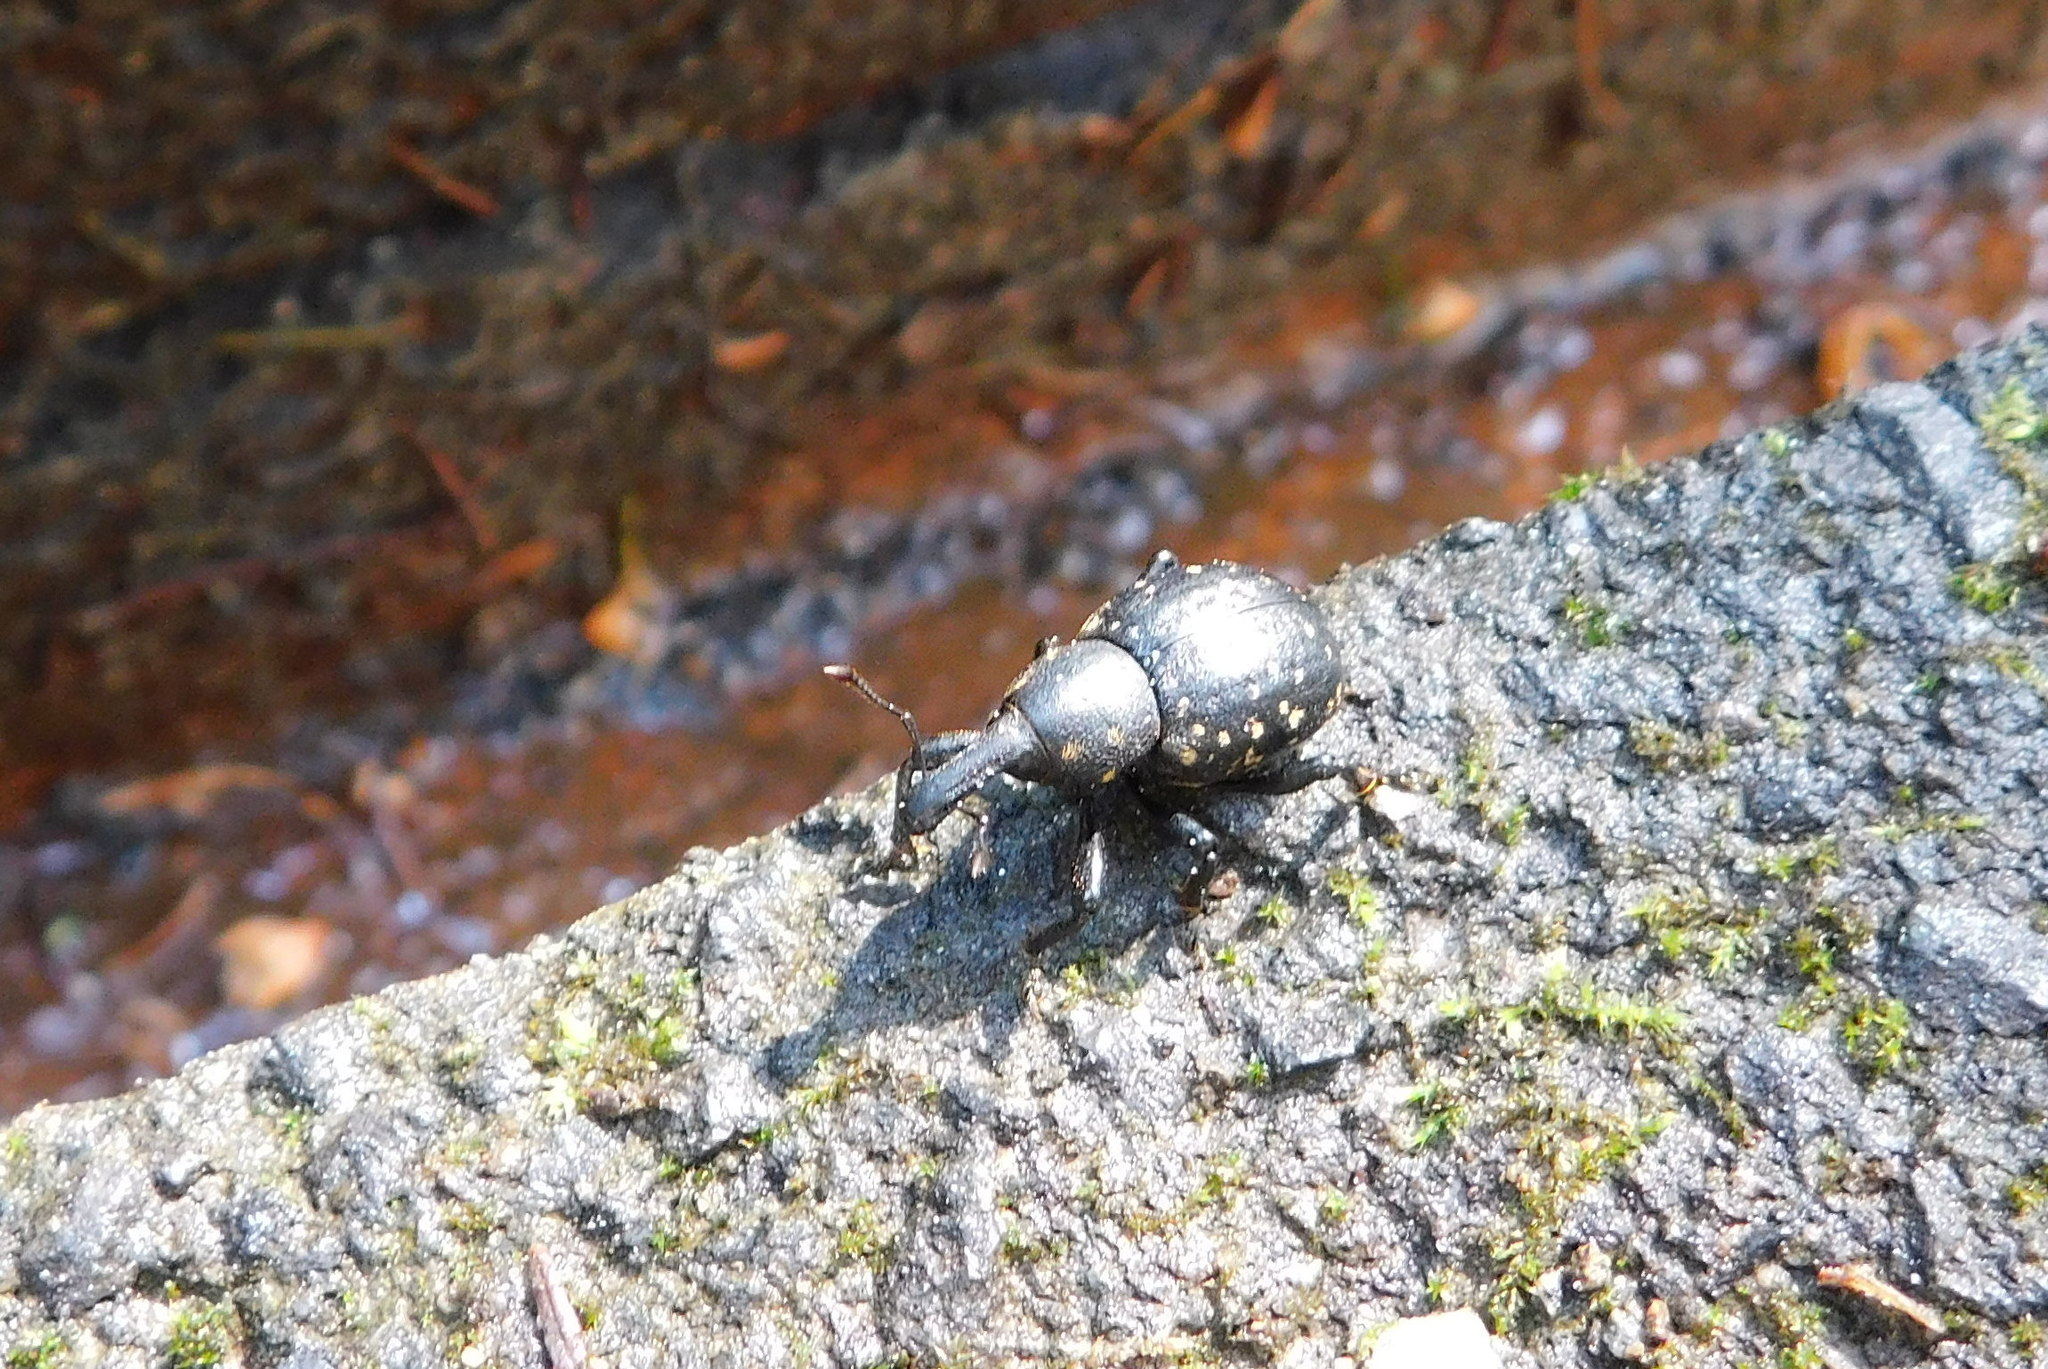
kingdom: Animalia
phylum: Arthropoda
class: Insecta
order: Coleoptera
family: Curculionidae
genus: Liparus
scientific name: Liparus germanus
